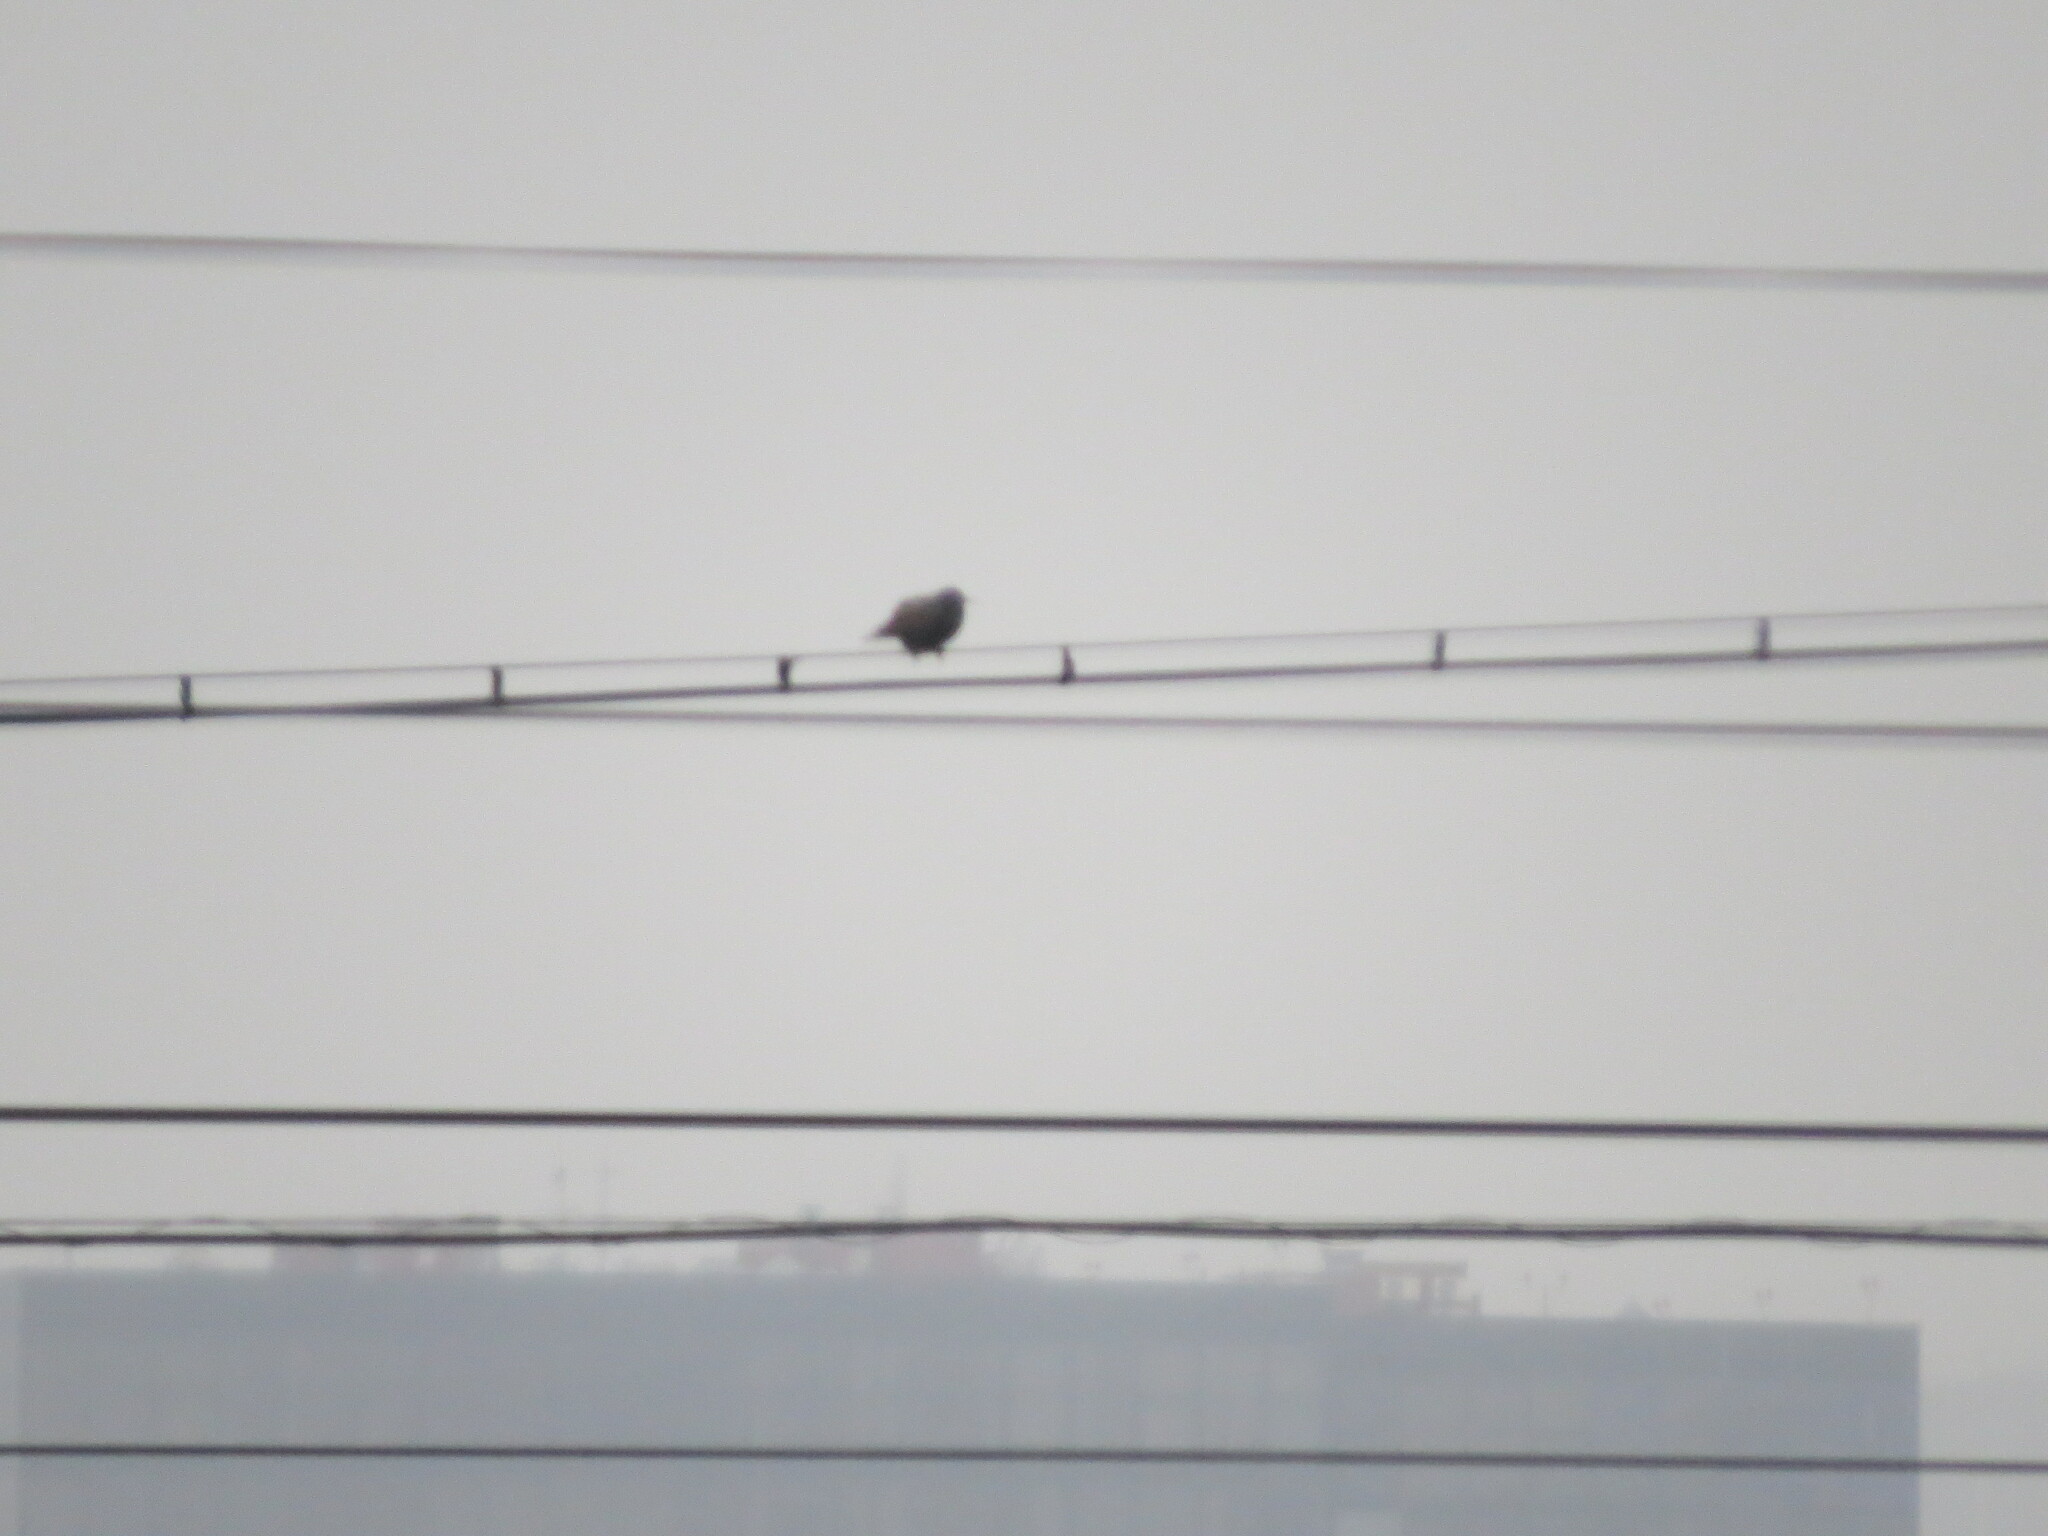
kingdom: Animalia
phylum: Chordata
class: Aves
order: Passeriformes
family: Sturnidae
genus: Sturnus
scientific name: Sturnus vulgaris
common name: Common starling
